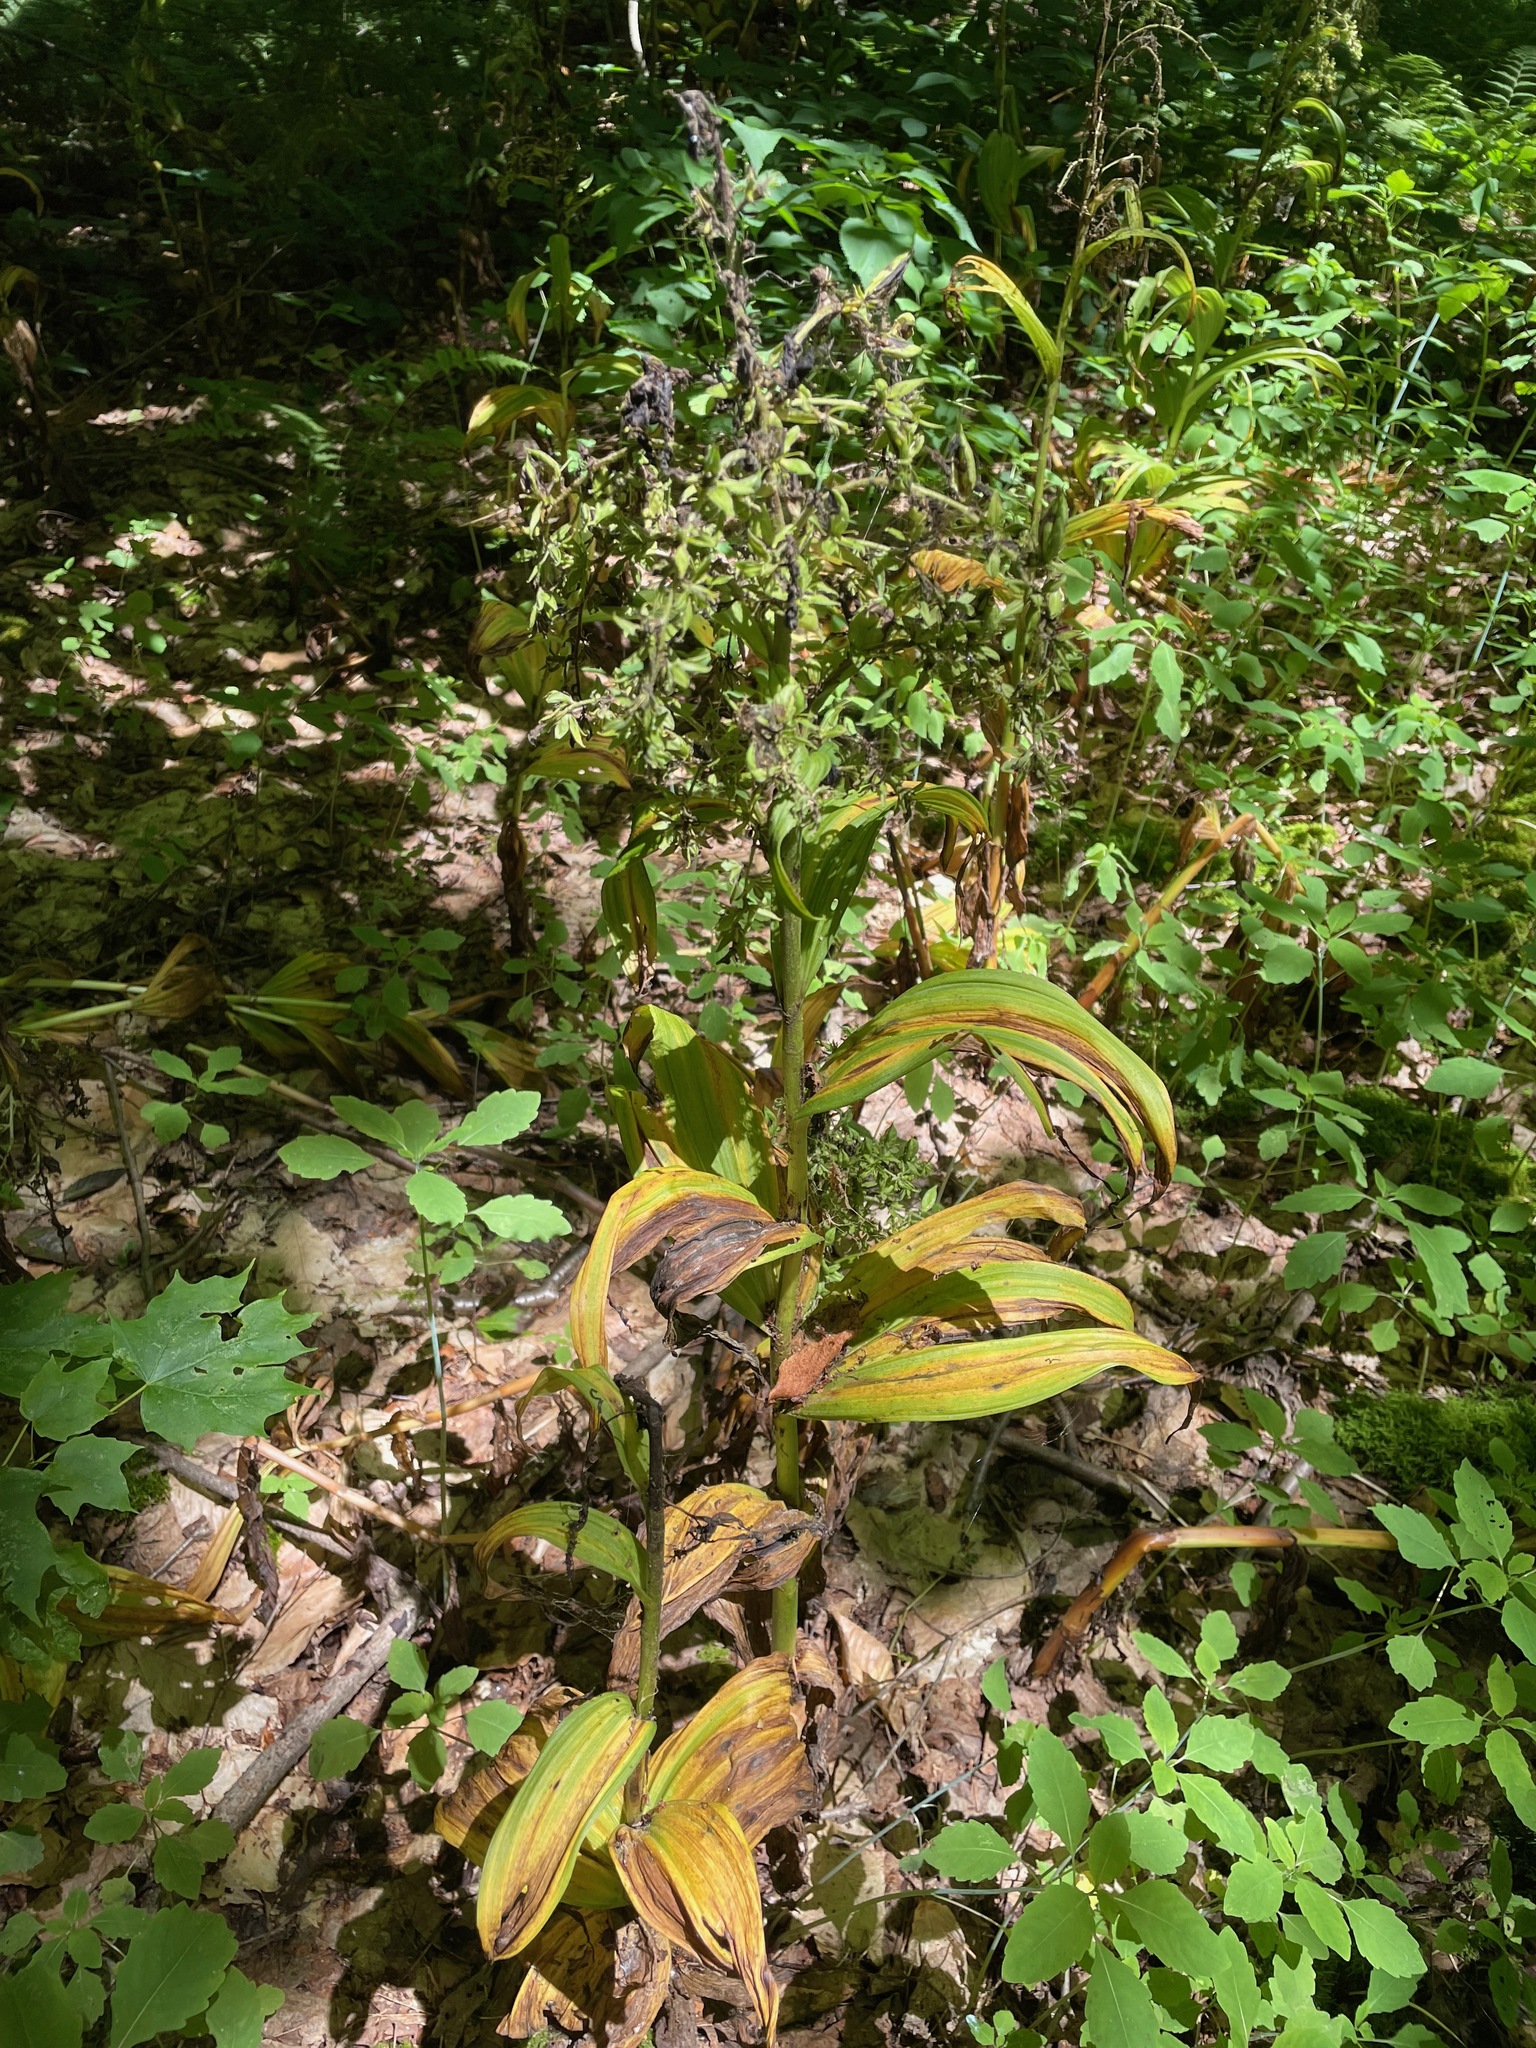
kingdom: Plantae
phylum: Tracheophyta
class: Liliopsida
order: Liliales
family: Melanthiaceae
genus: Veratrum
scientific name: Veratrum viride
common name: American false hellebore
